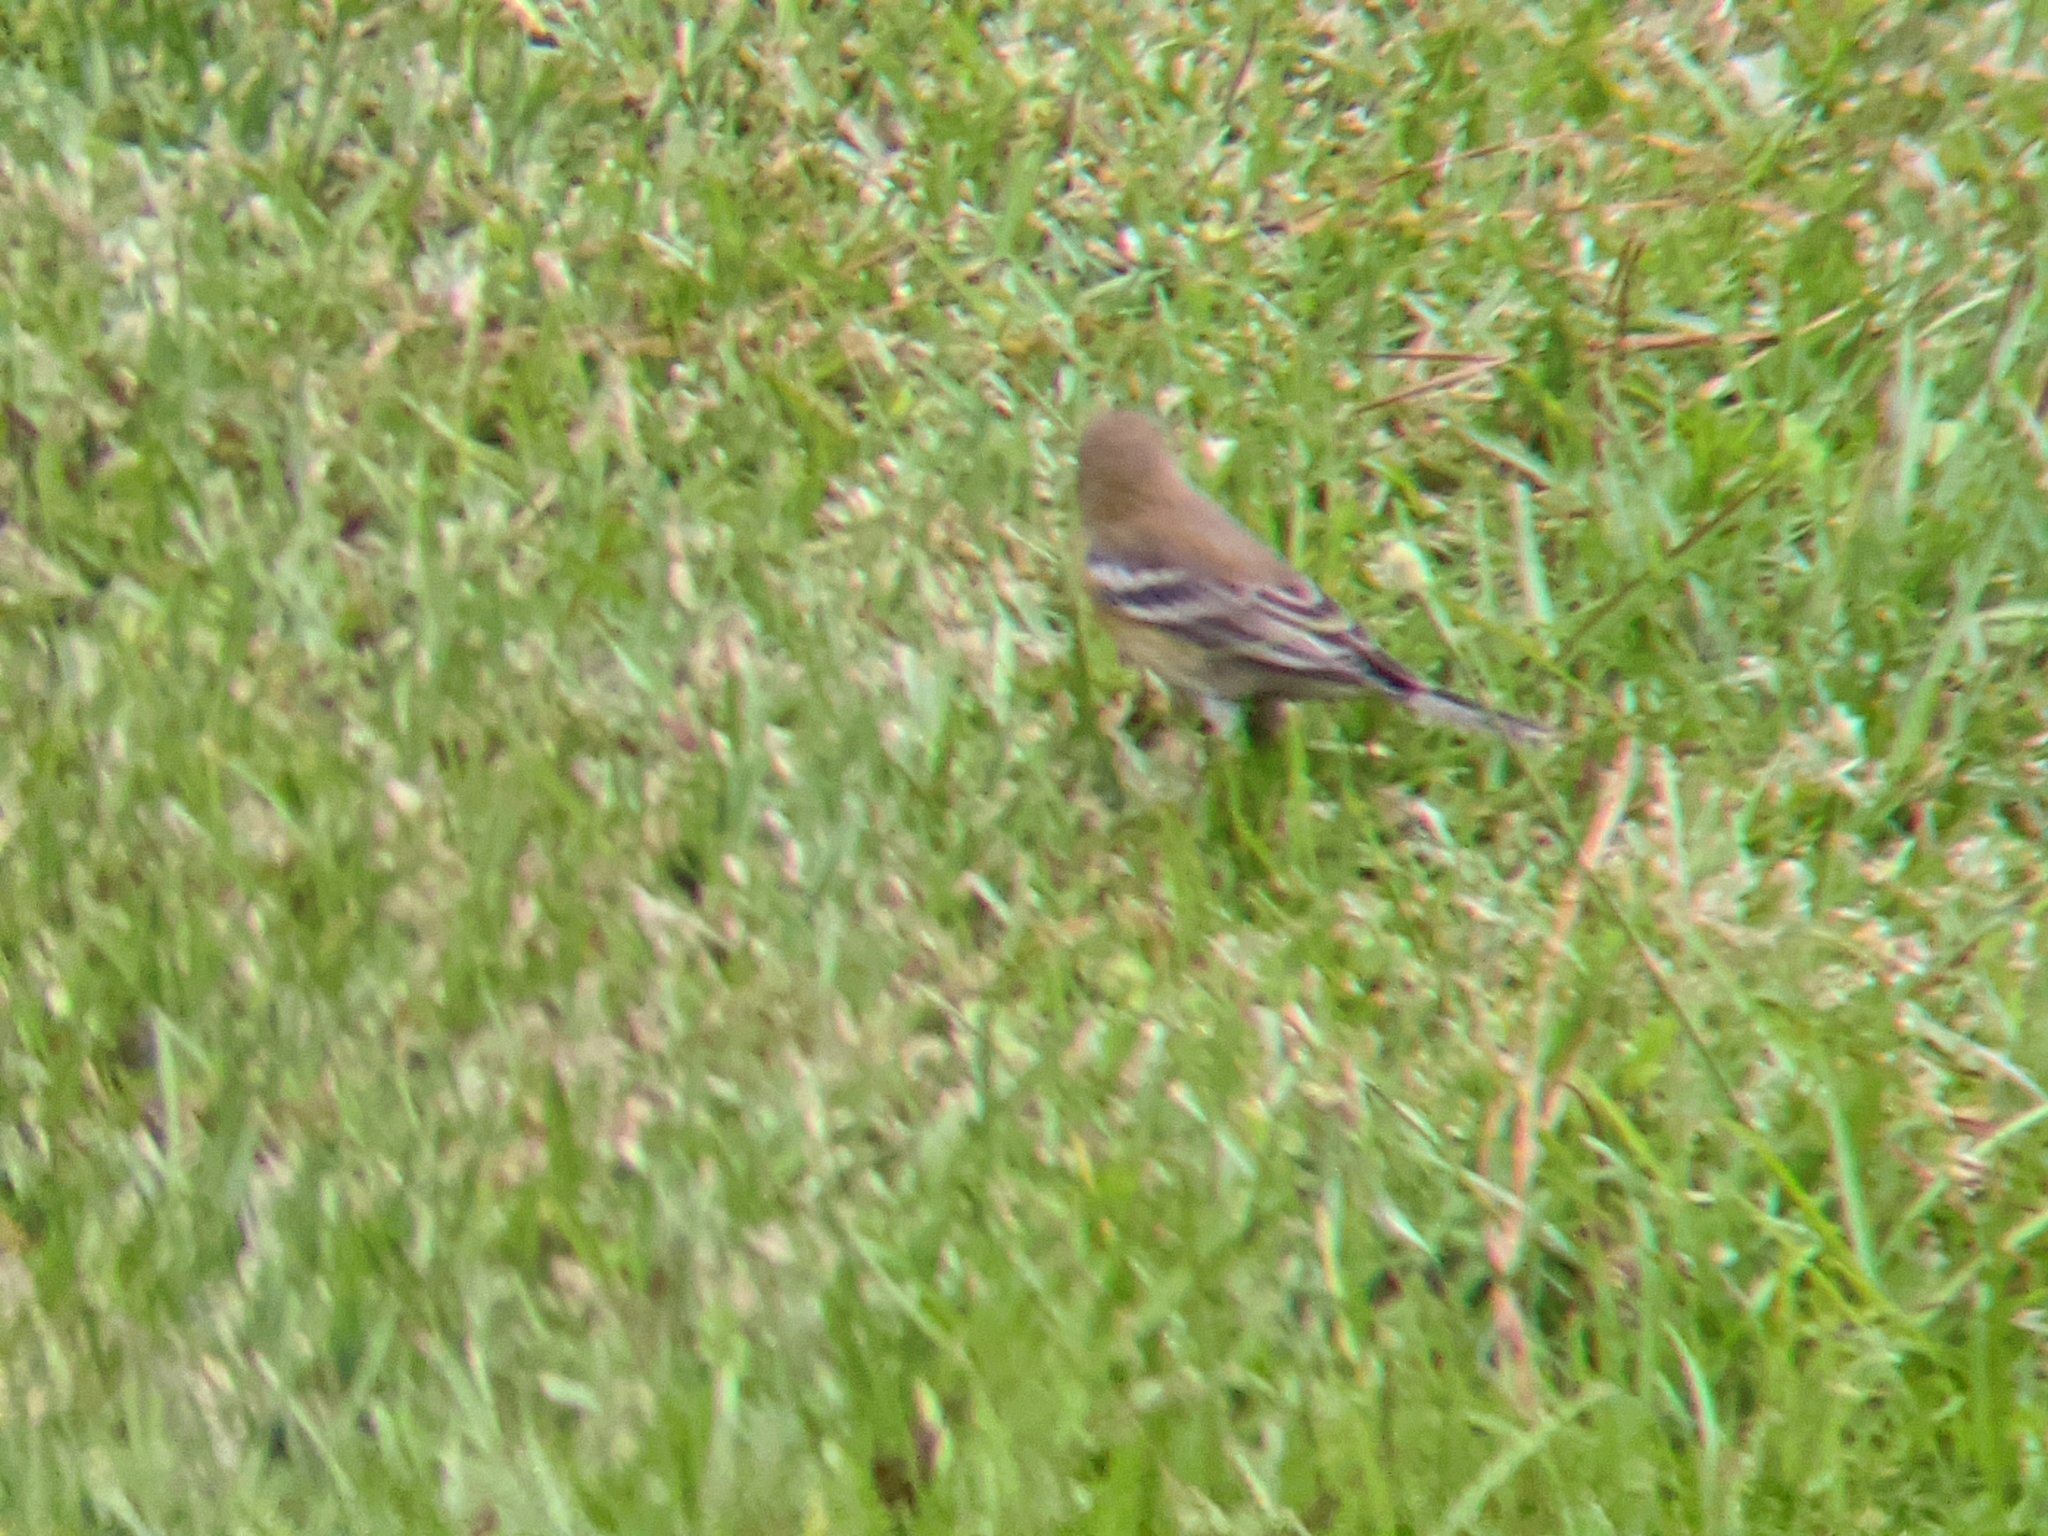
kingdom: Animalia
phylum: Chordata
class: Aves
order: Passeriformes
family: Parulidae
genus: Setophaga
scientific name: Setophaga pinus
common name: Pine warbler
